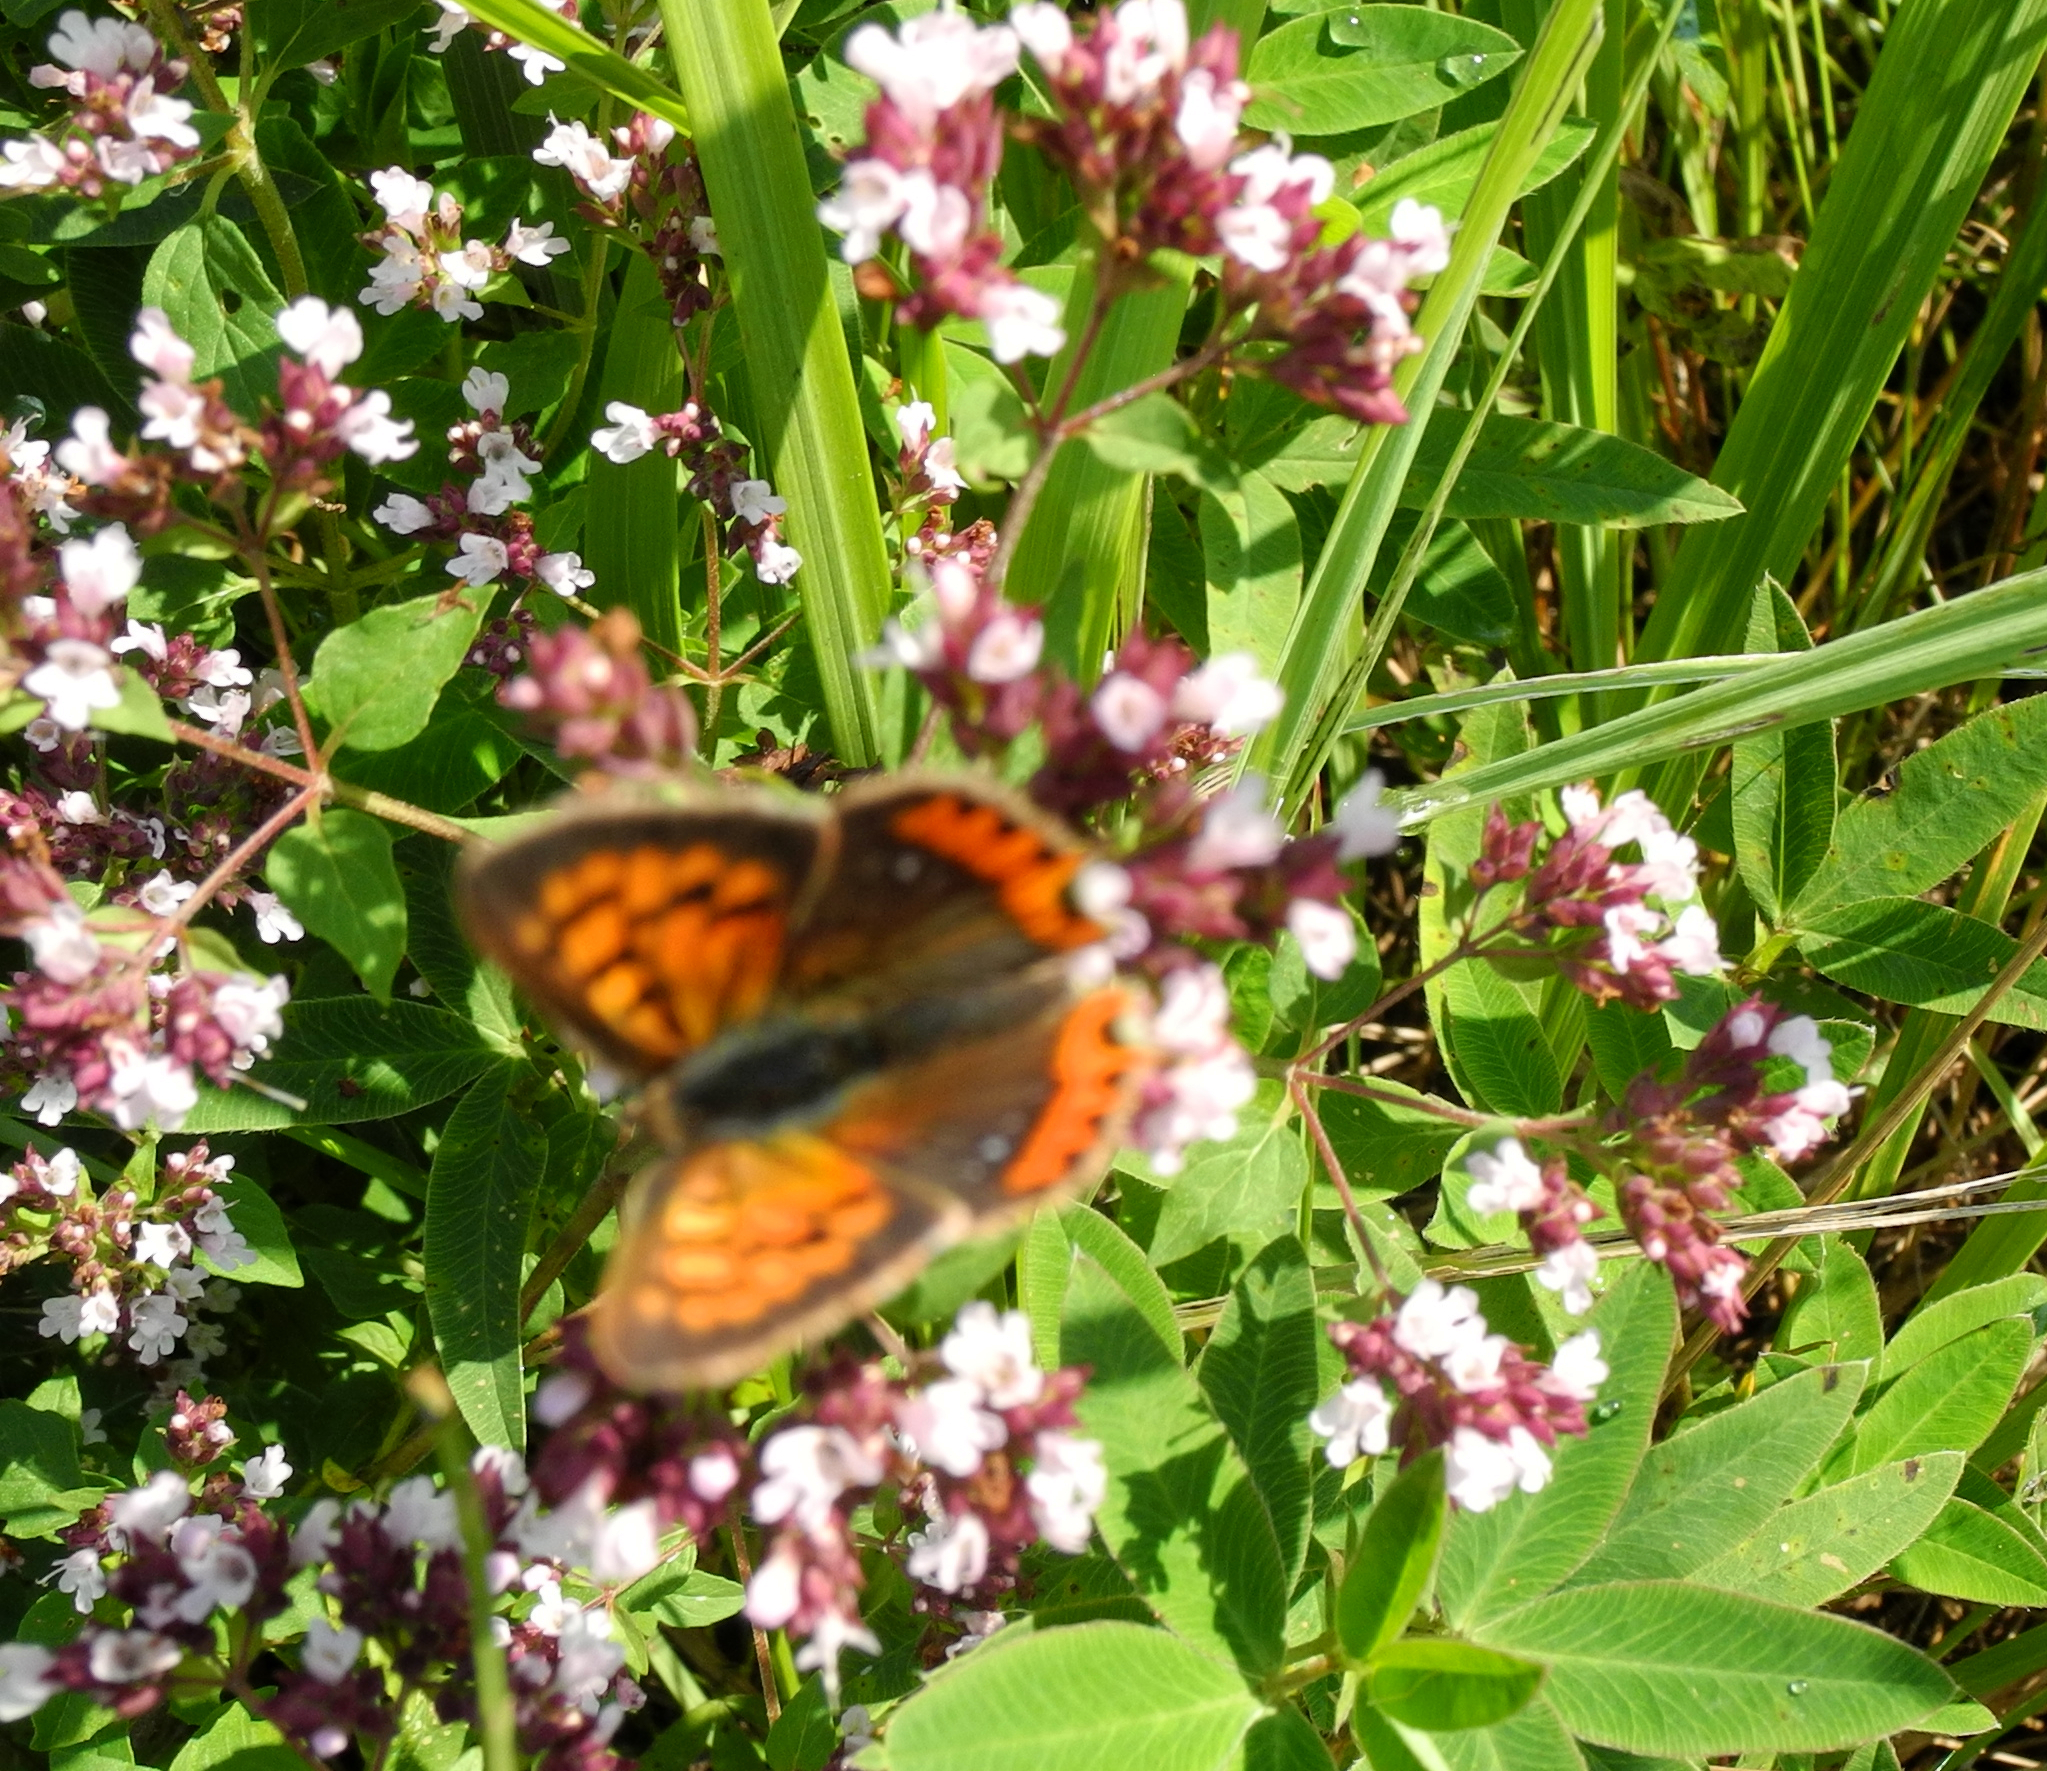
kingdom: Animalia
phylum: Arthropoda
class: Insecta
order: Lepidoptera
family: Lycaenidae
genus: Lycaena
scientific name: Lycaena phlaeas
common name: Small copper
